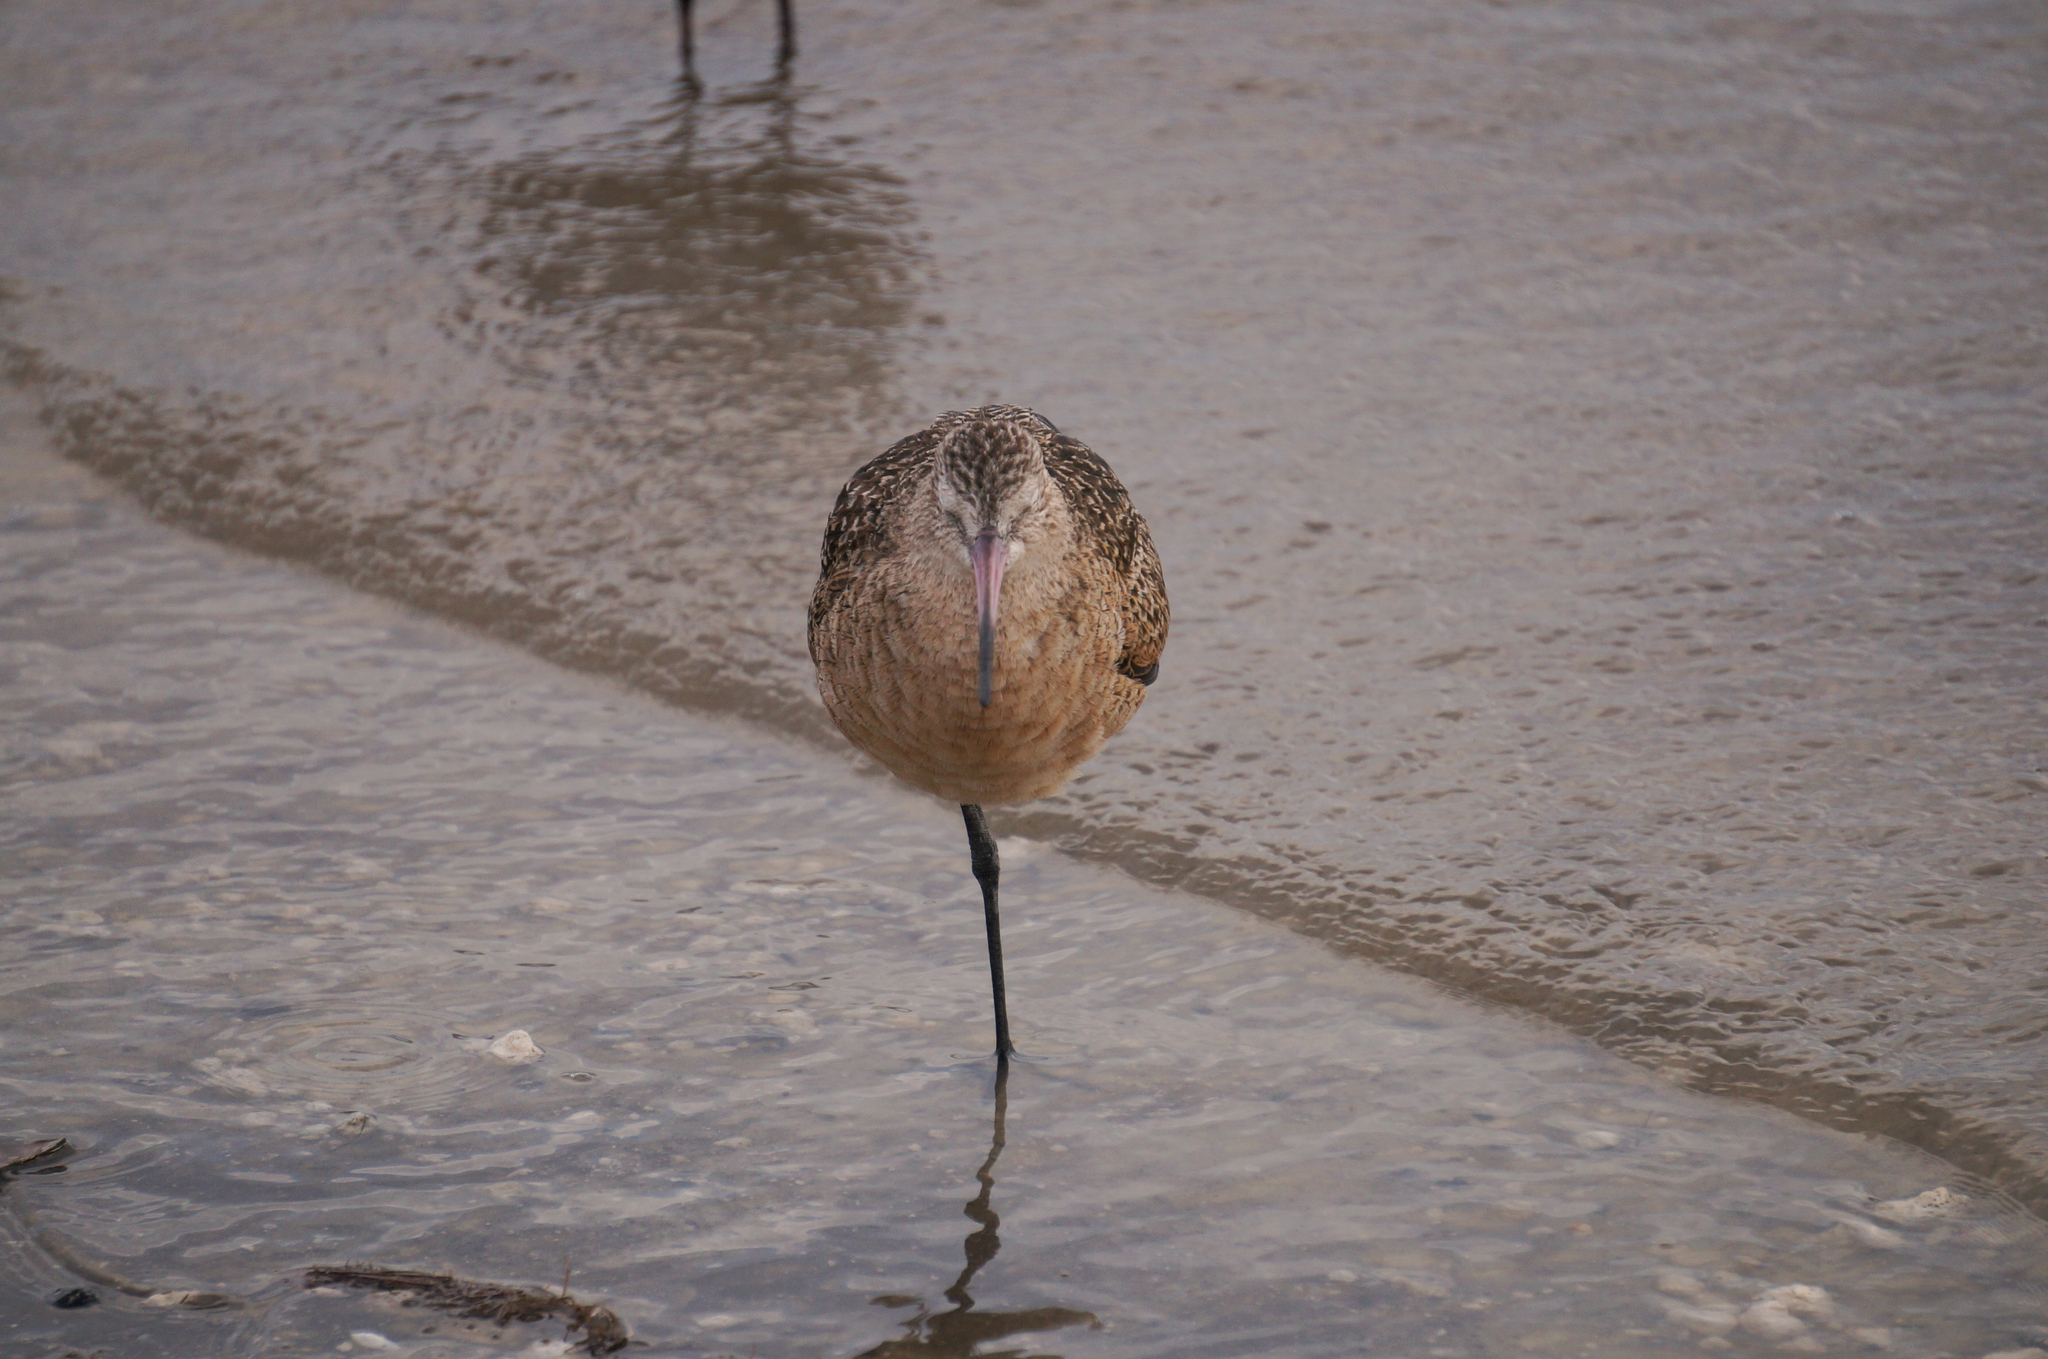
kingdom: Animalia
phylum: Chordata
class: Aves
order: Charadriiformes
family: Scolopacidae
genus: Limosa
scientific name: Limosa fedoa
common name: Marbled godwit
